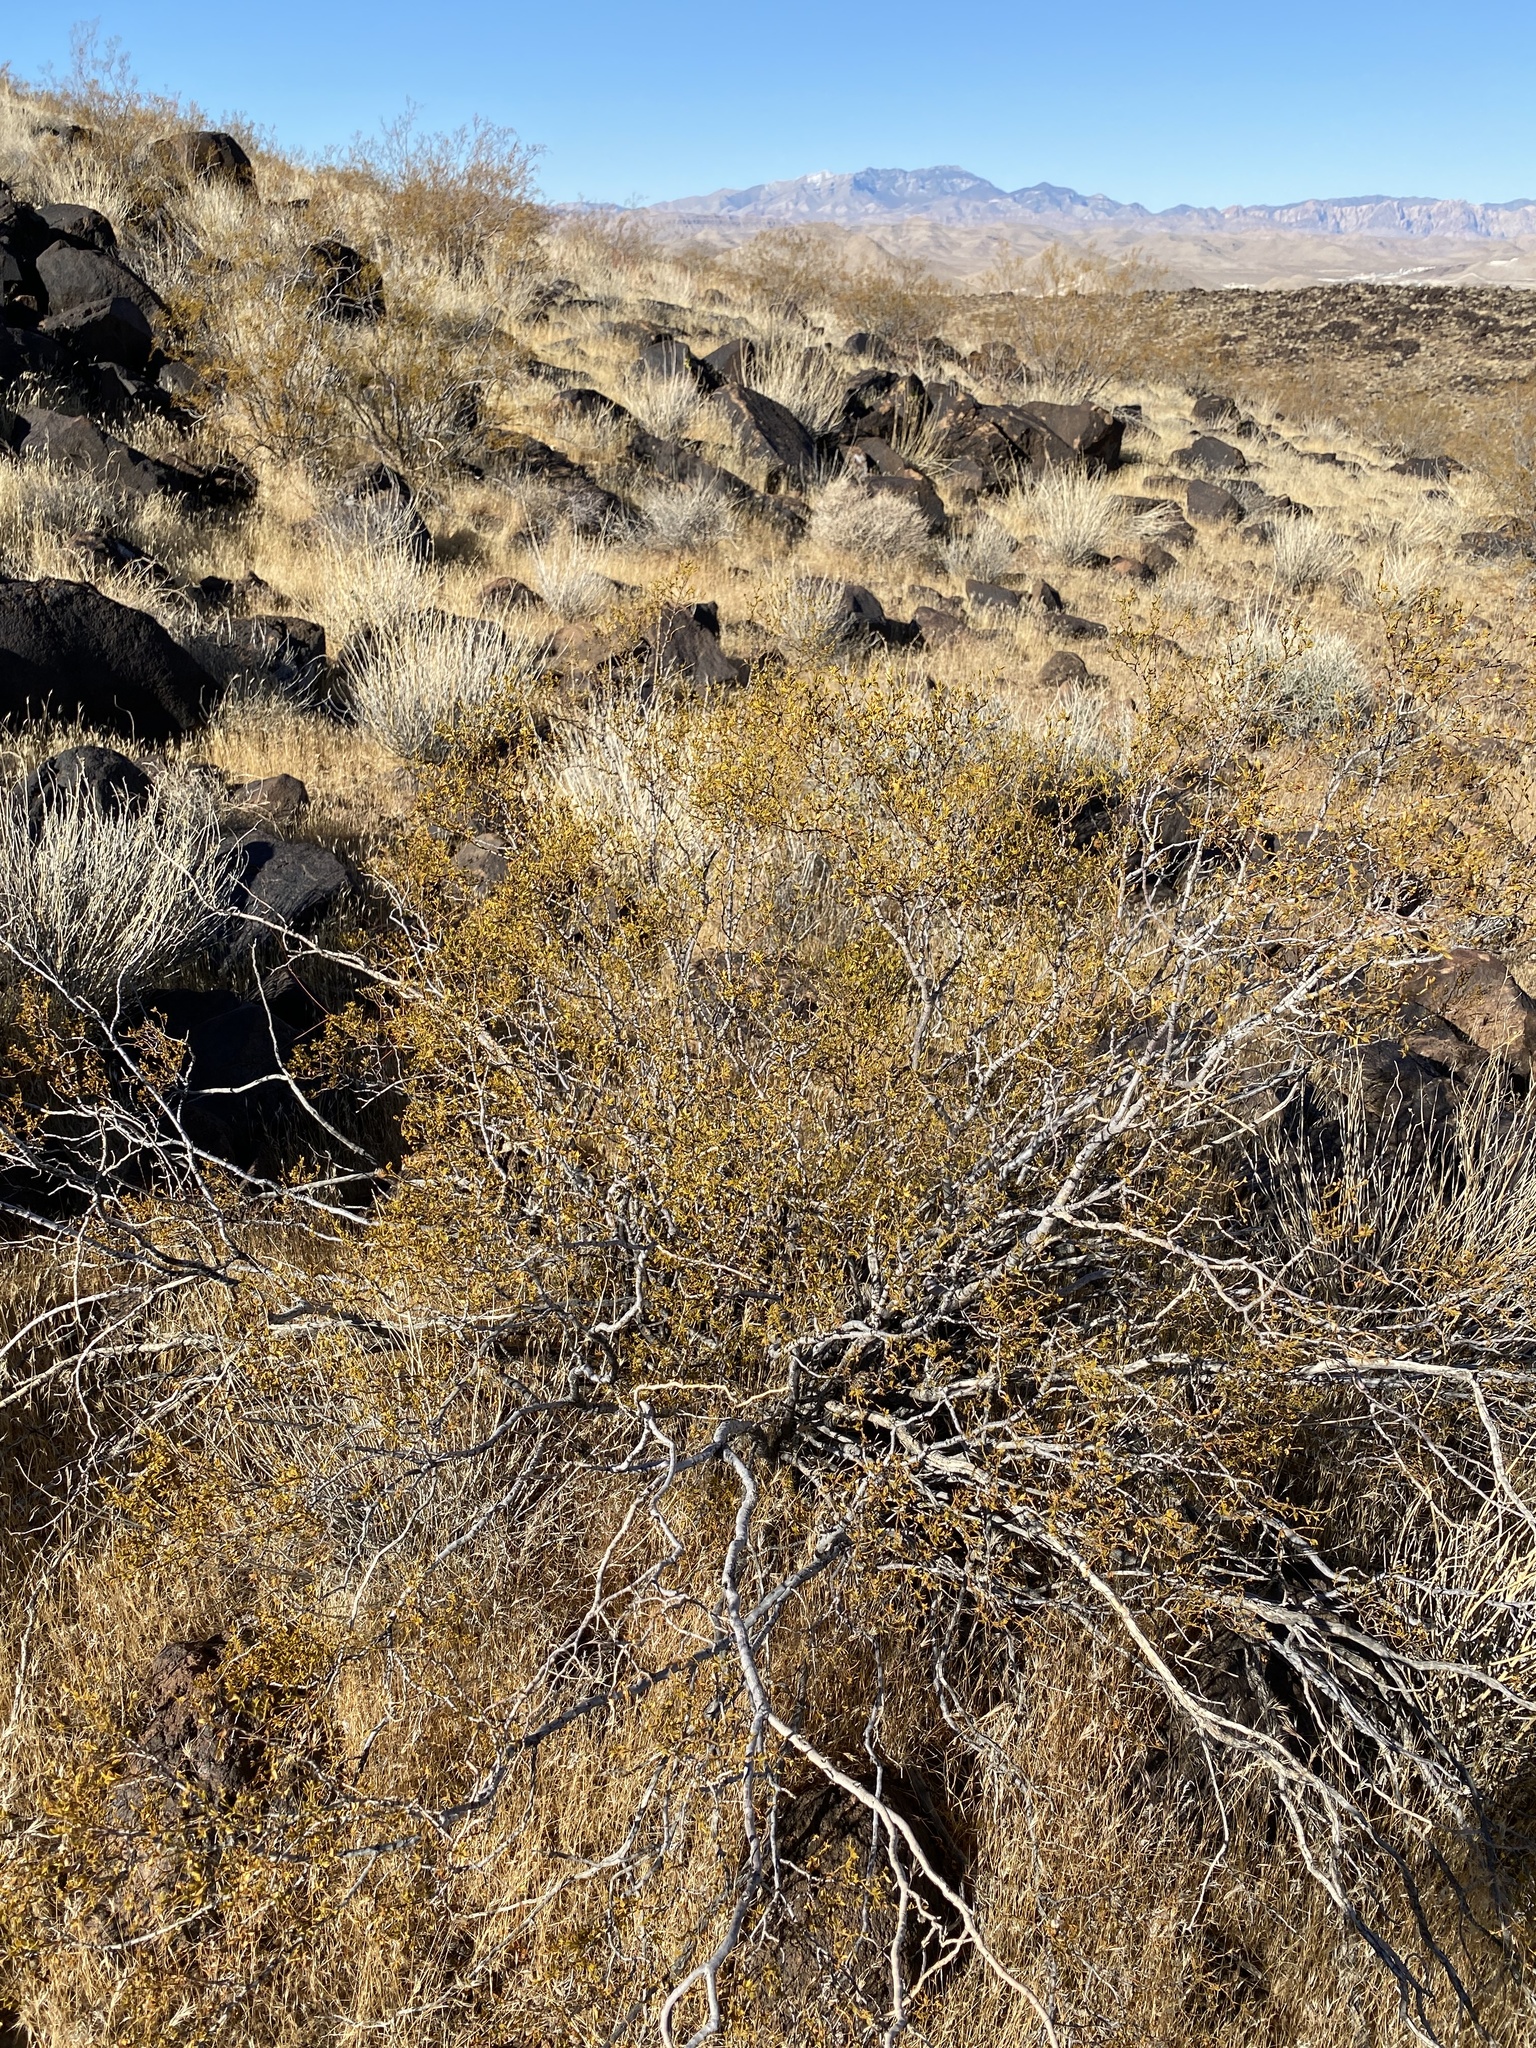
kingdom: Plantae
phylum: Tracheophyta
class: Magnoliopsida
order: Zygophyllales
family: Zygophyllaceae
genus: Larrea
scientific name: Larrea tridentata
